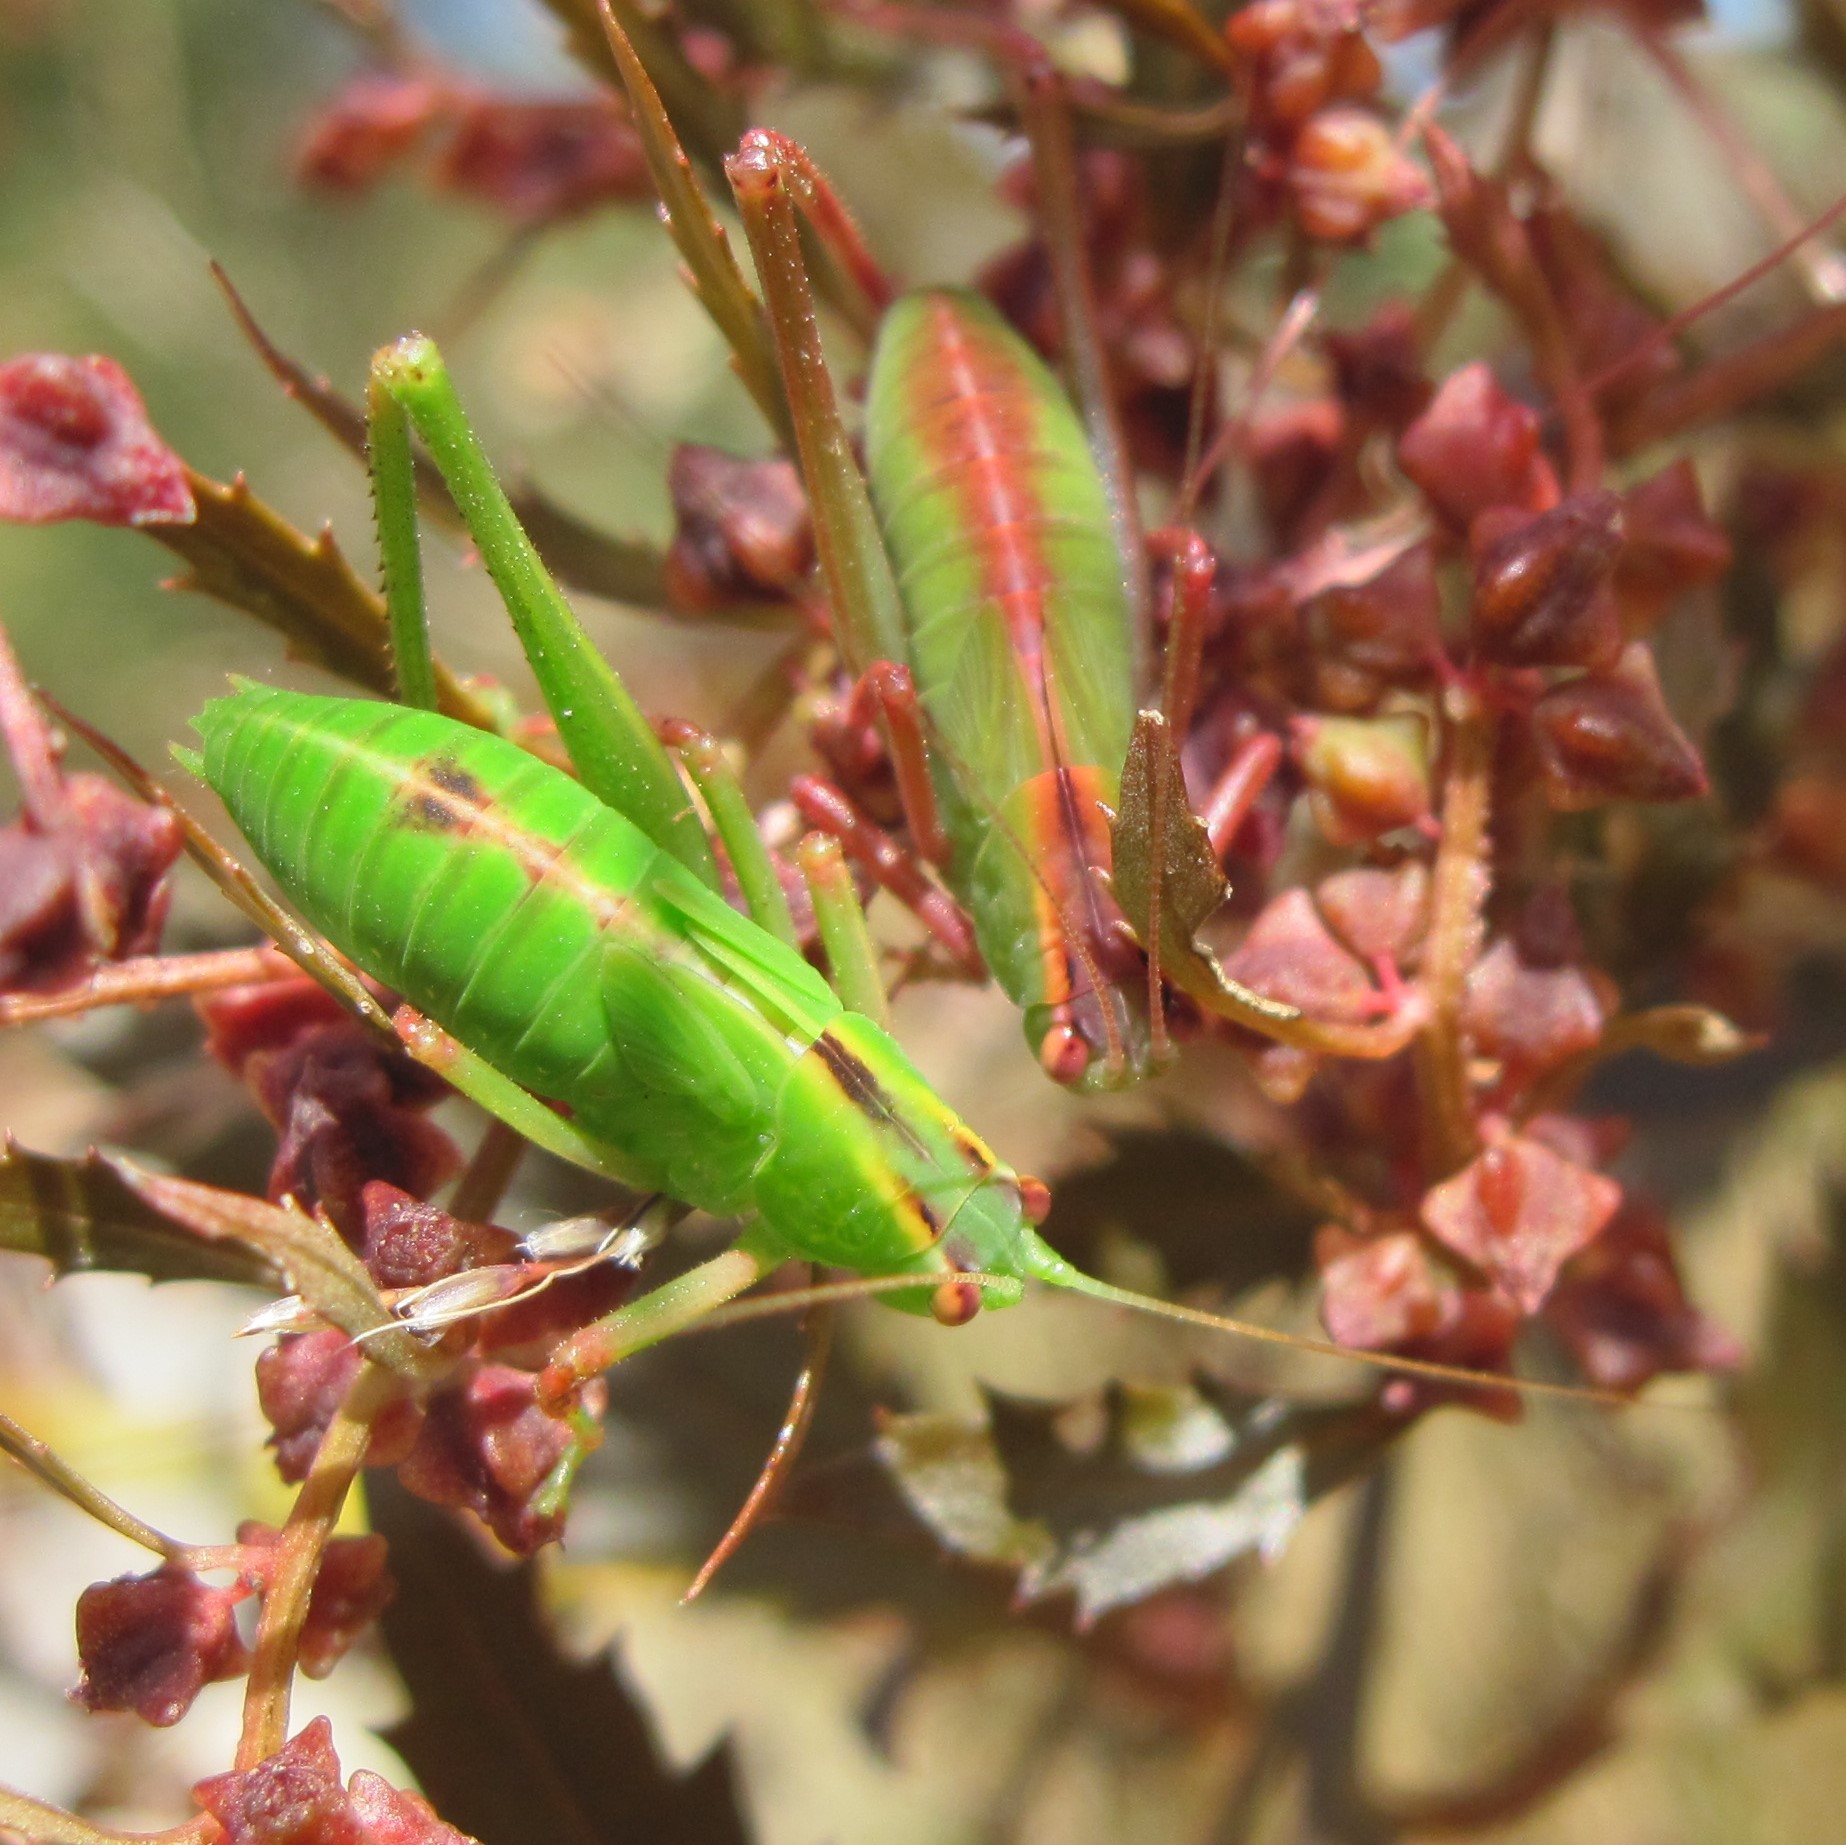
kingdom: Animalia
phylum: Arthropoda
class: Insecta
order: Orthoptera
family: Tettigoniidae
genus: Caedicia
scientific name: Caedicia simplex
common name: Common garden katydid
